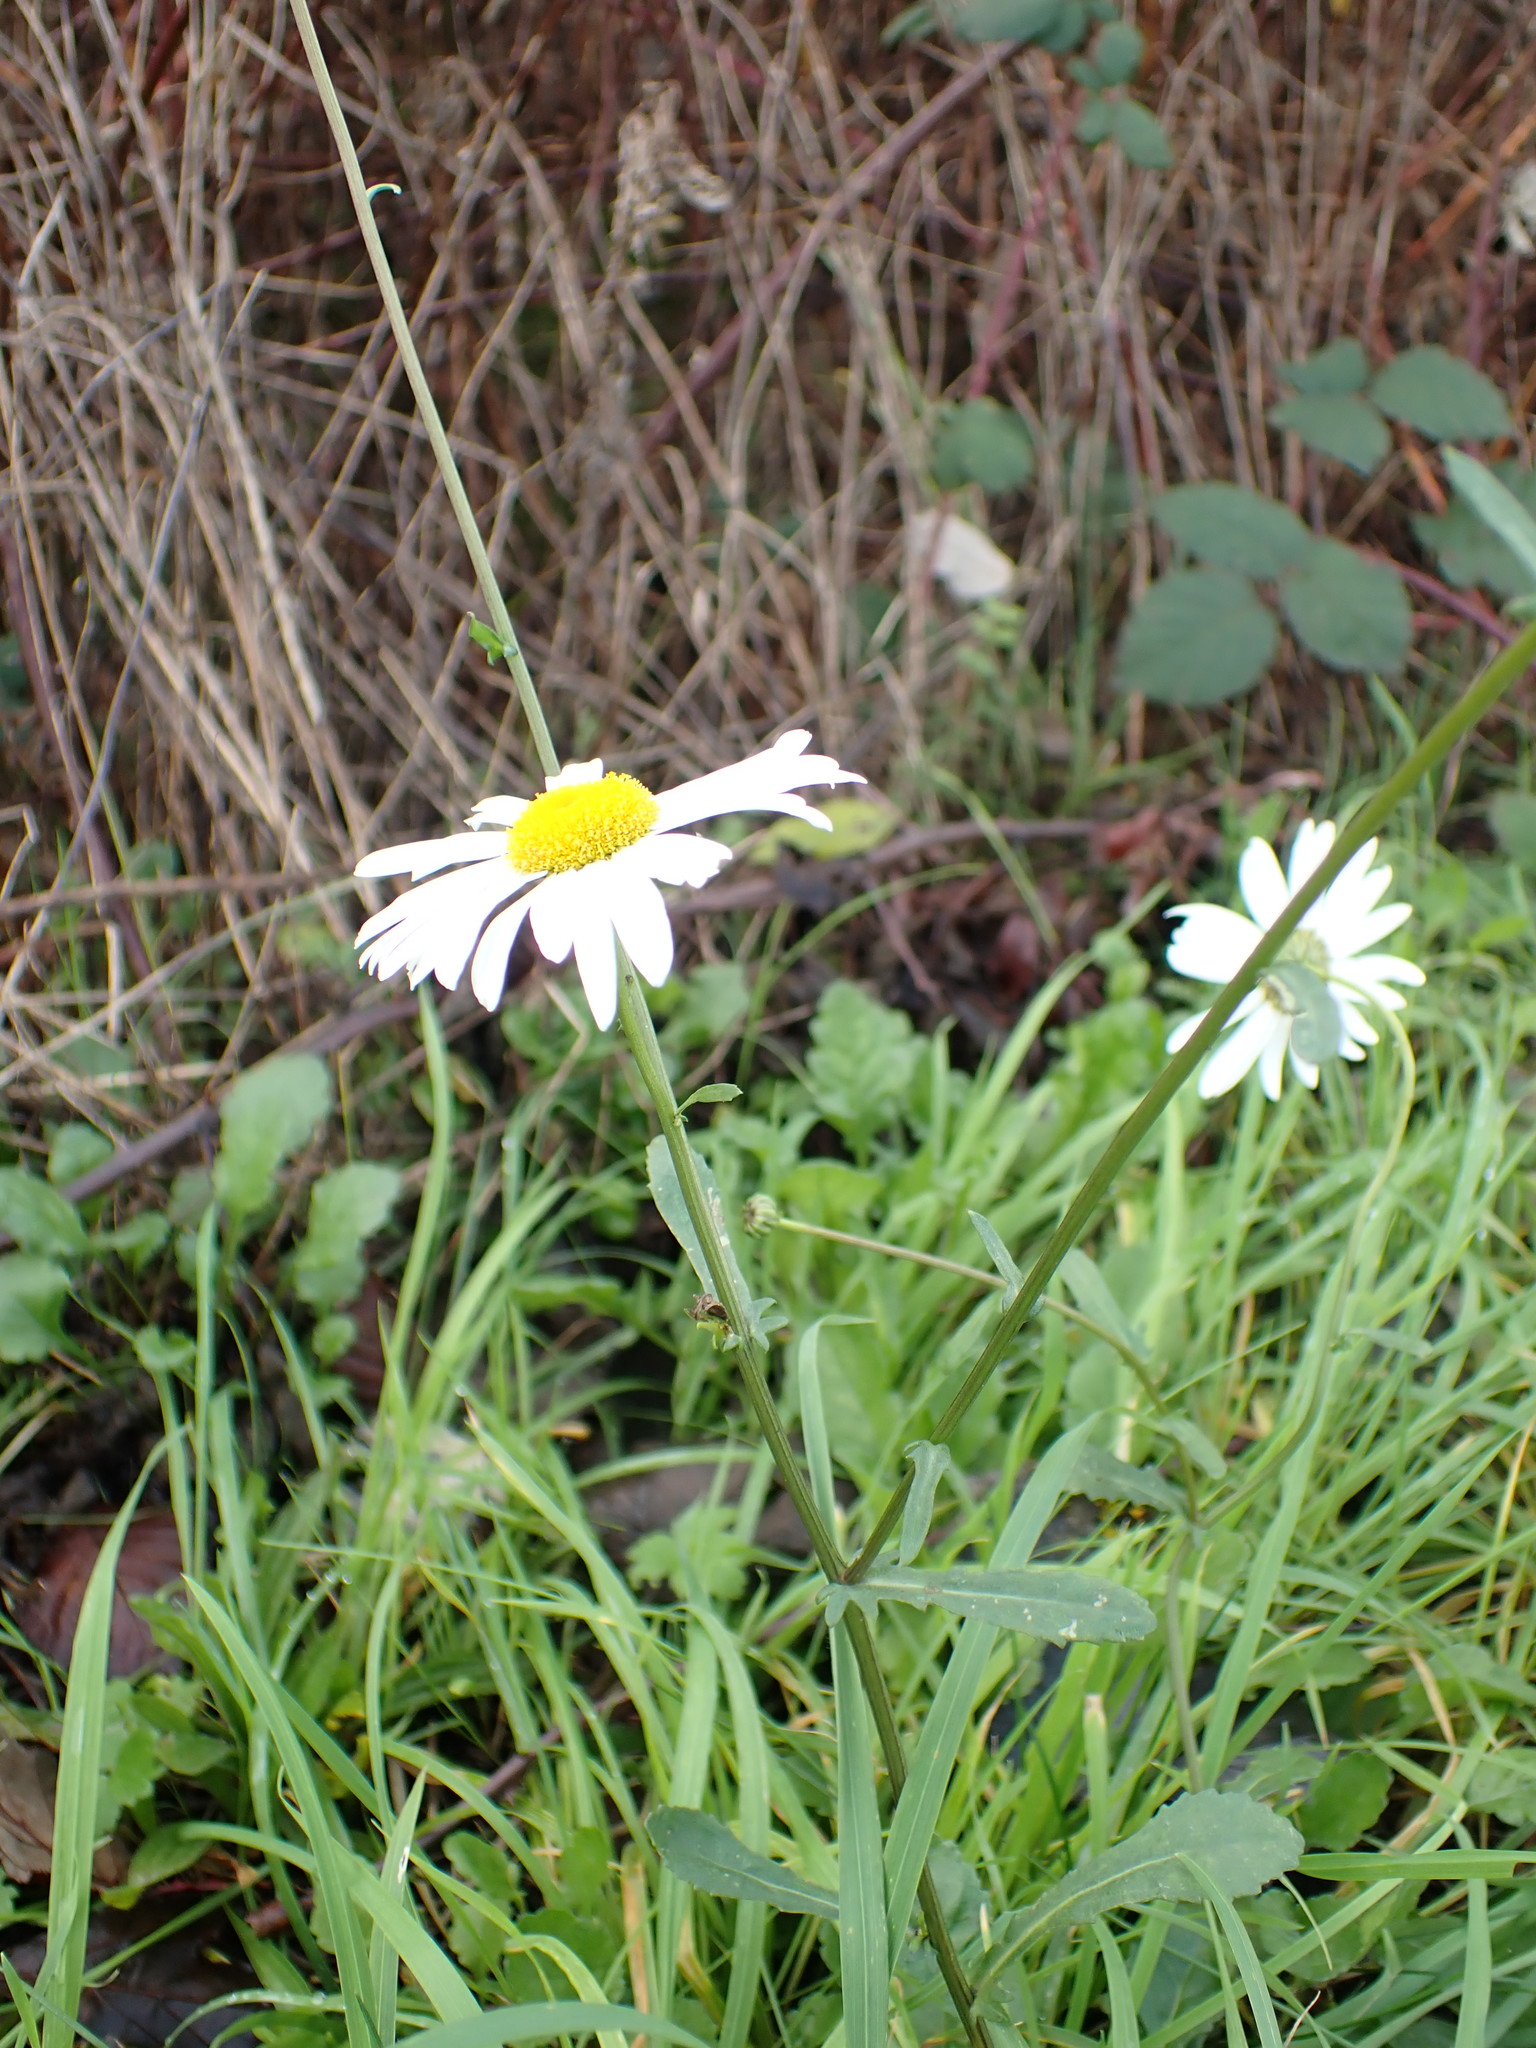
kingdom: Plantae
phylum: Tracheophyta
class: Magnoliopsida
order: Asterales
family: Asteraceae
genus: Leucanthemum
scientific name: Leucanthemum vulgare
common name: Oxeye daisy
